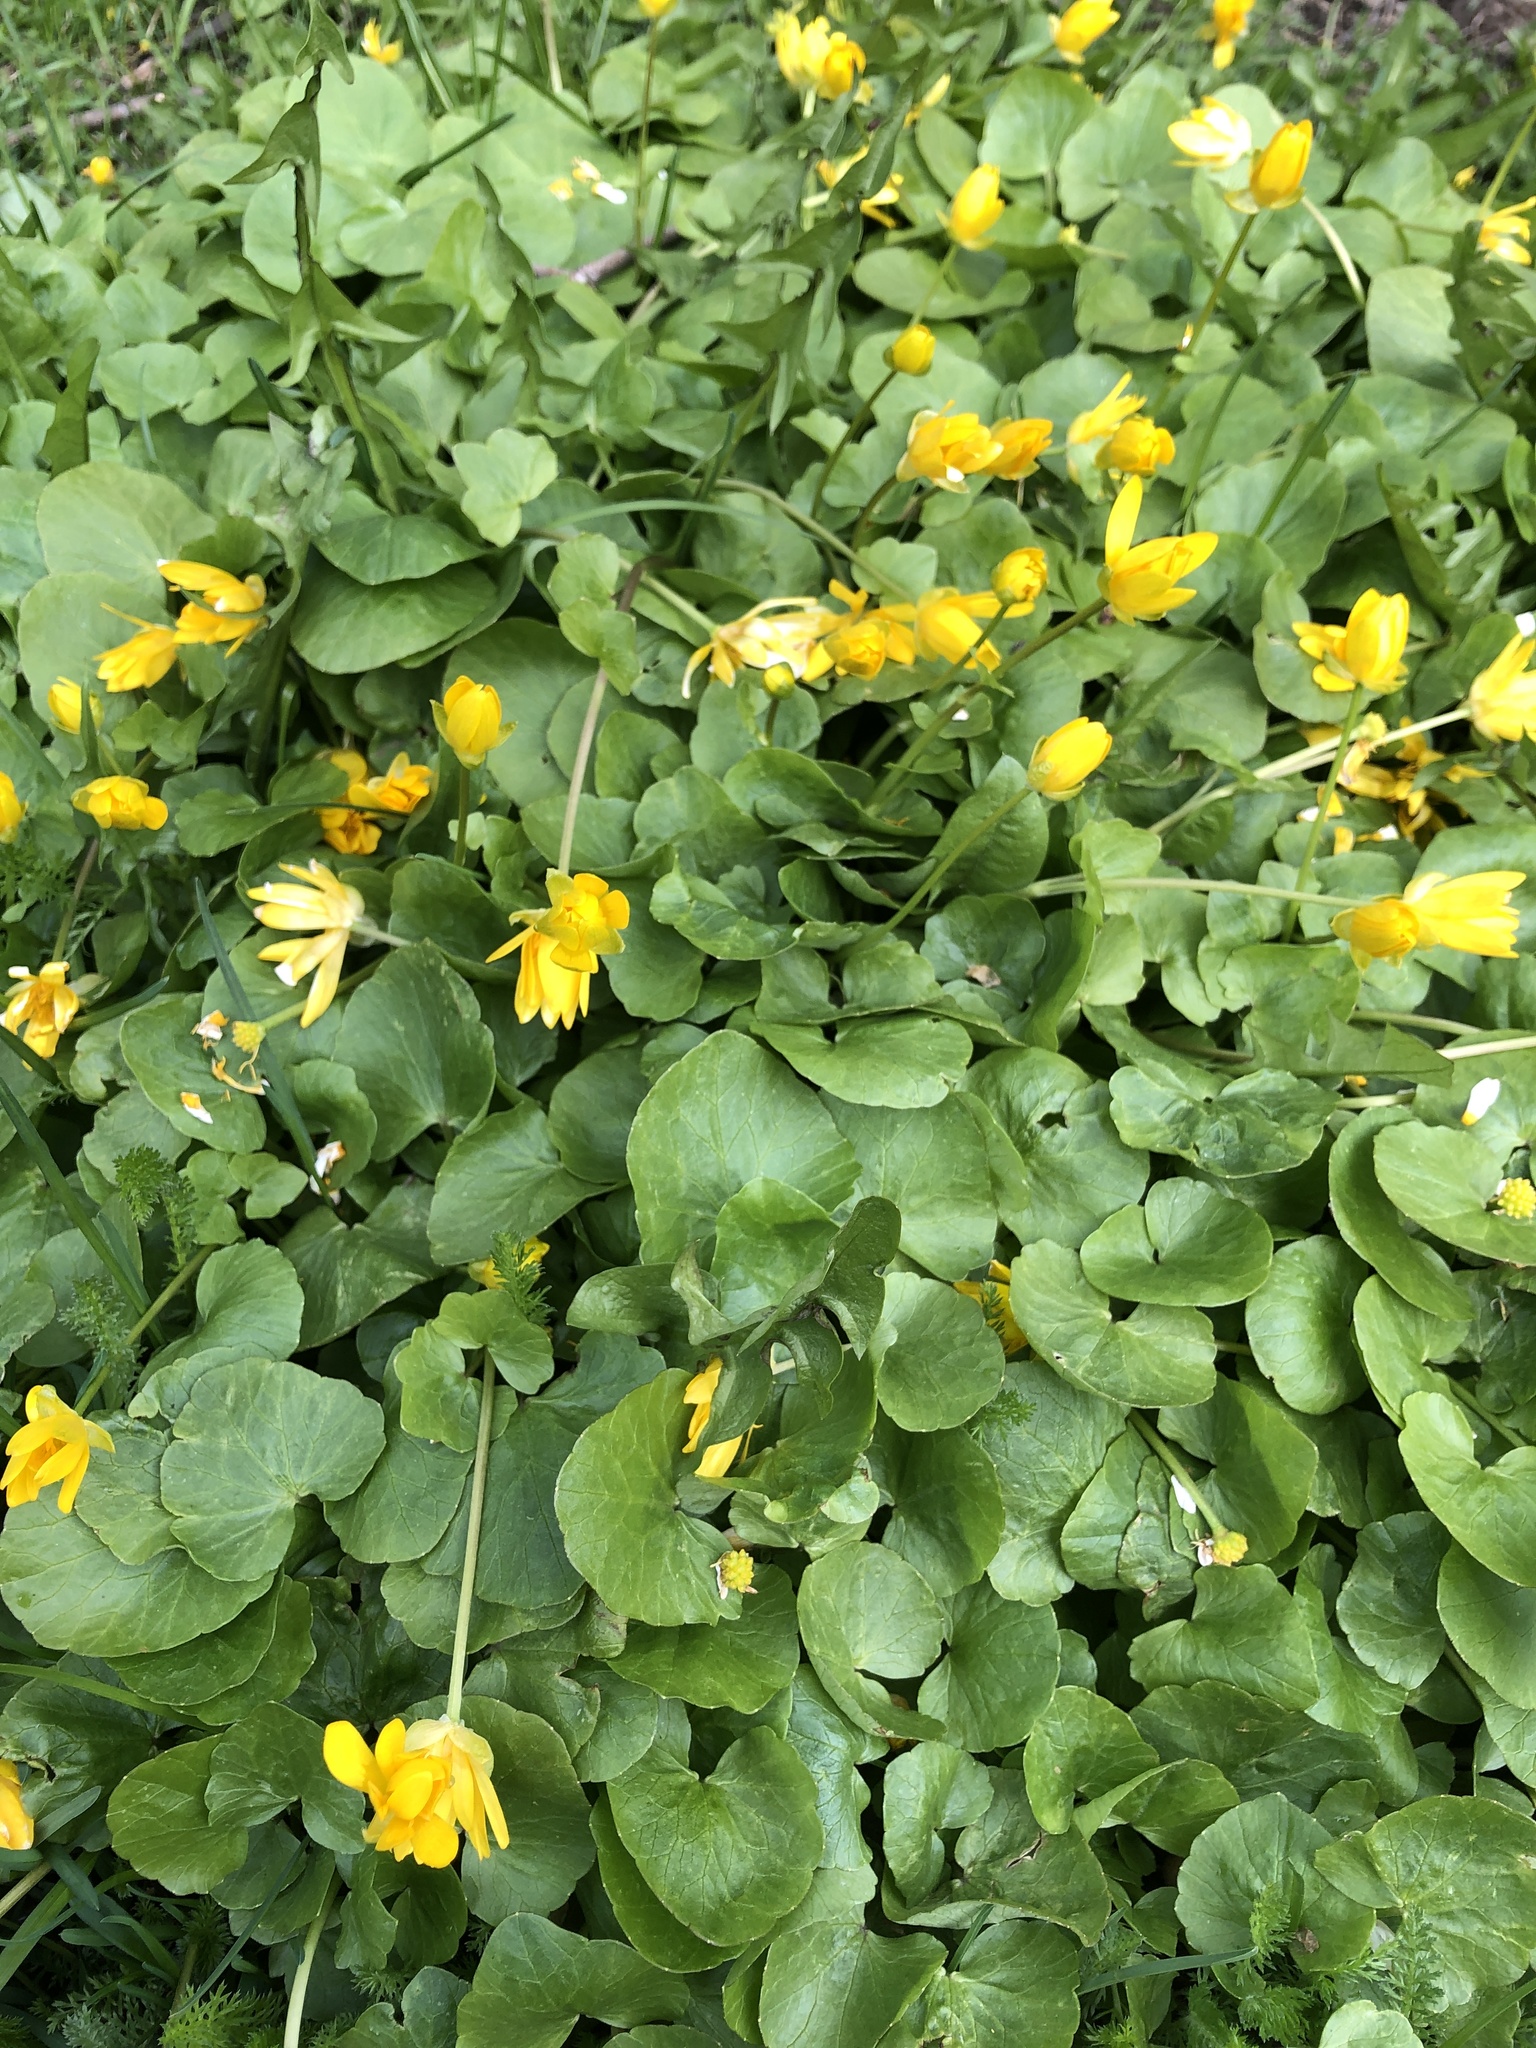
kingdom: Plantae
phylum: Tracheophyta
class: Magnoliopsida
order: Ranunculales
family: Ranunculaceae
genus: Ficaria
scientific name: Ficaria verna
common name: Lesser celandine
